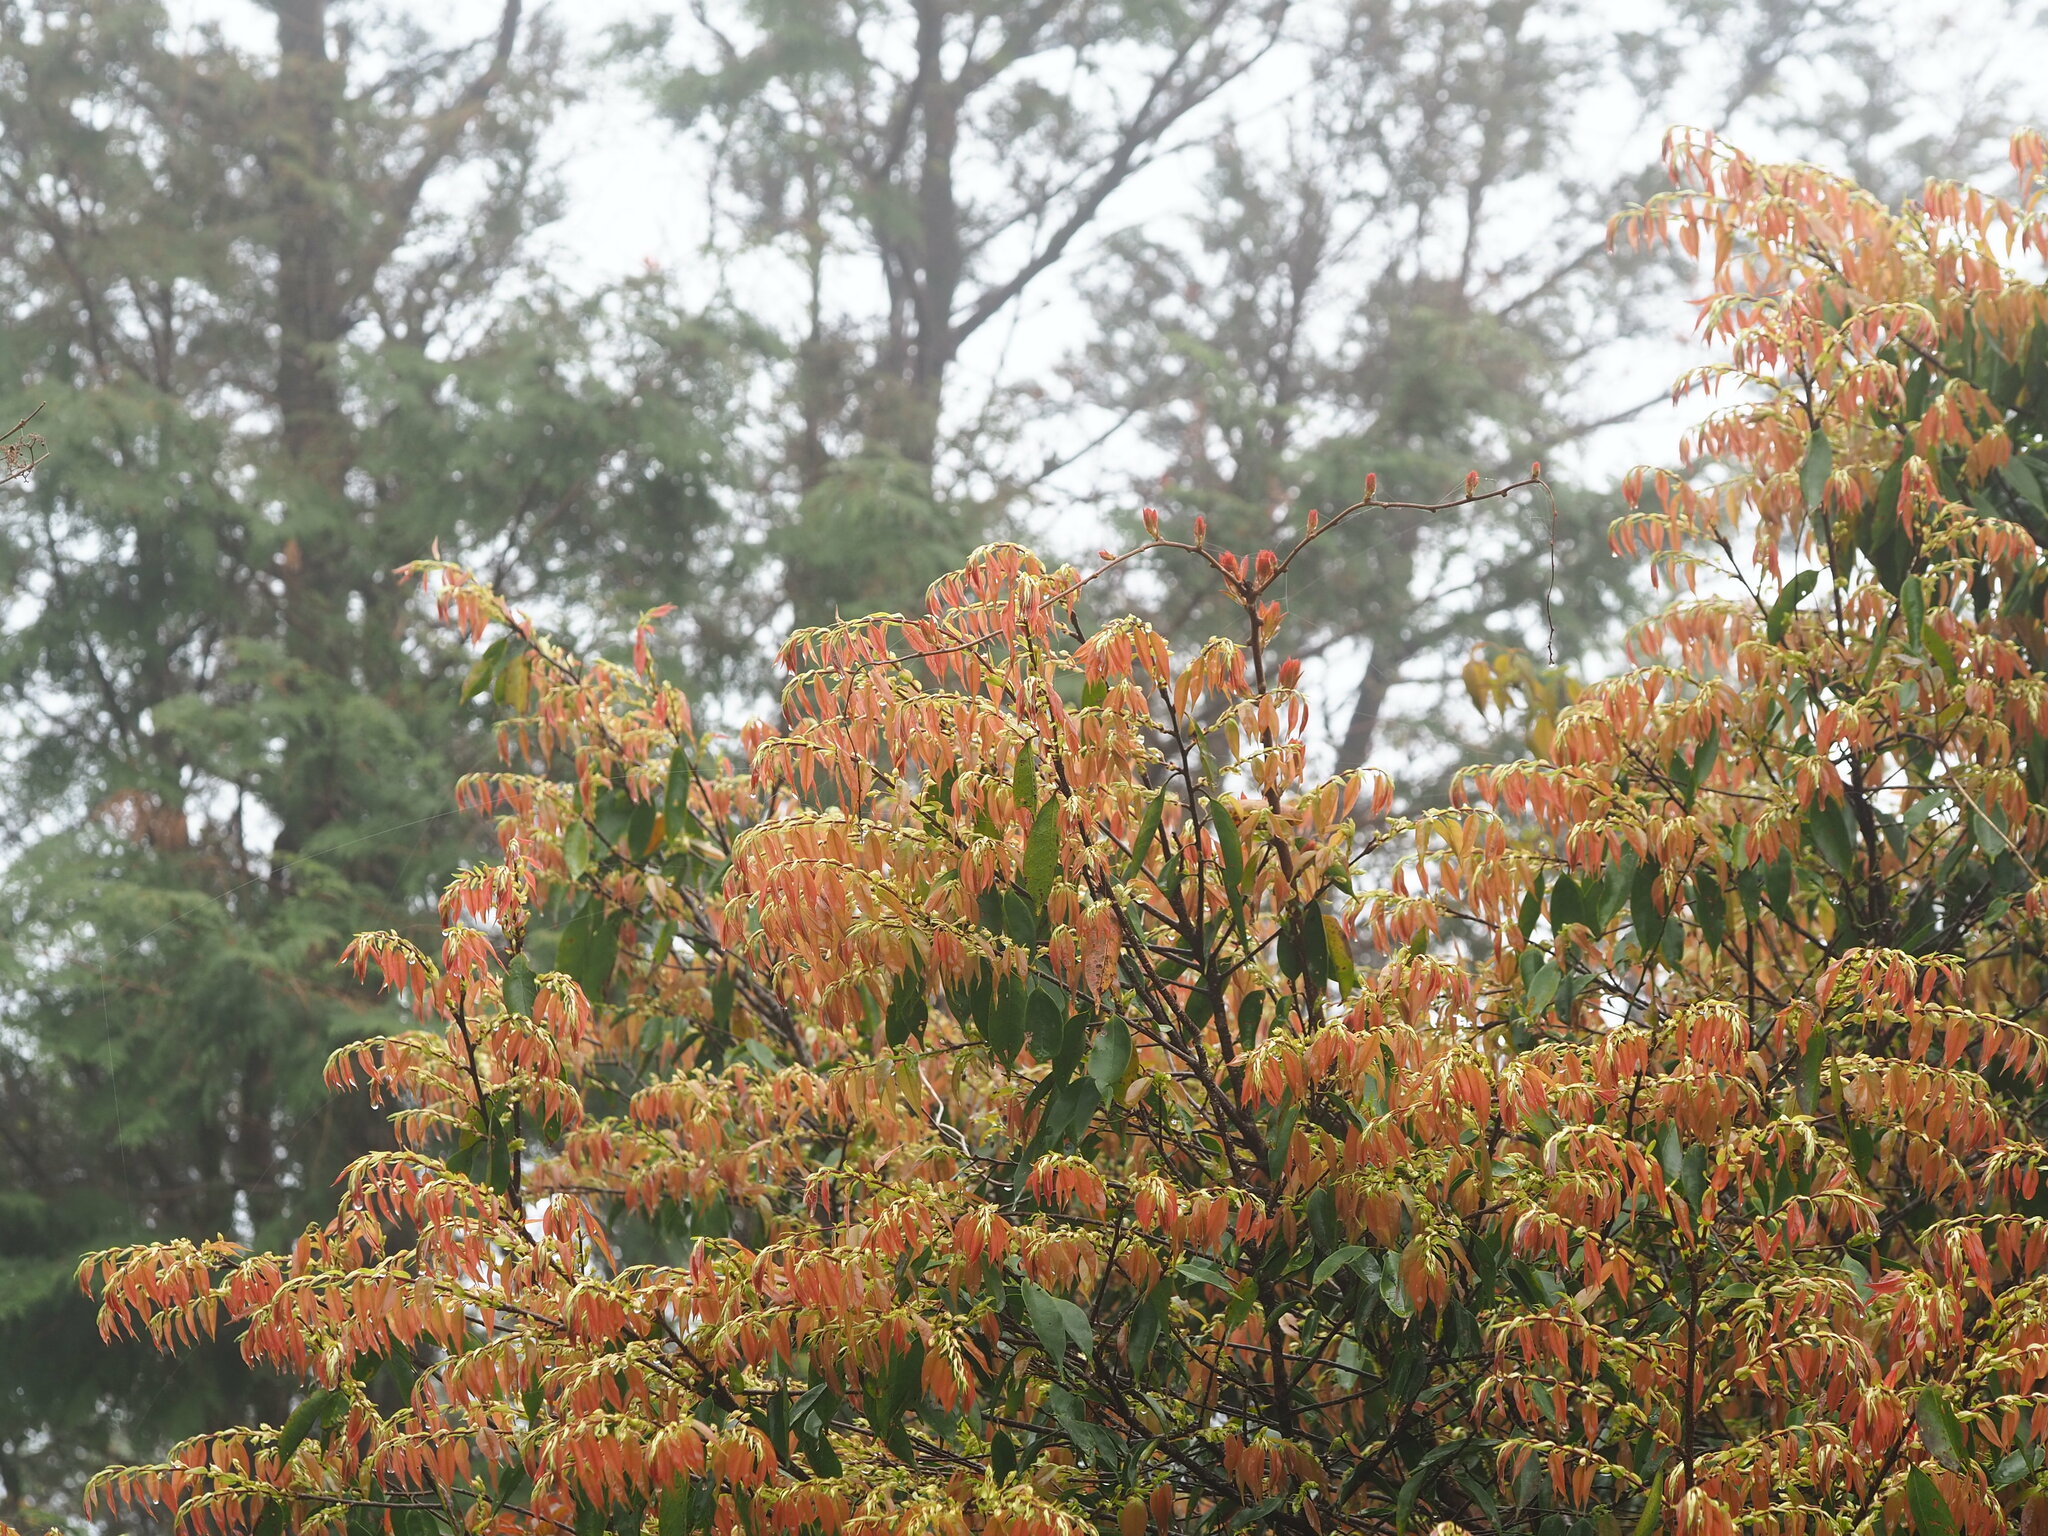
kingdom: Plantae
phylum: Tracheophyta
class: Magnoliopsida
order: Rosales
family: Rosaceae
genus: Prunus
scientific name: Prunus phaeosticta
